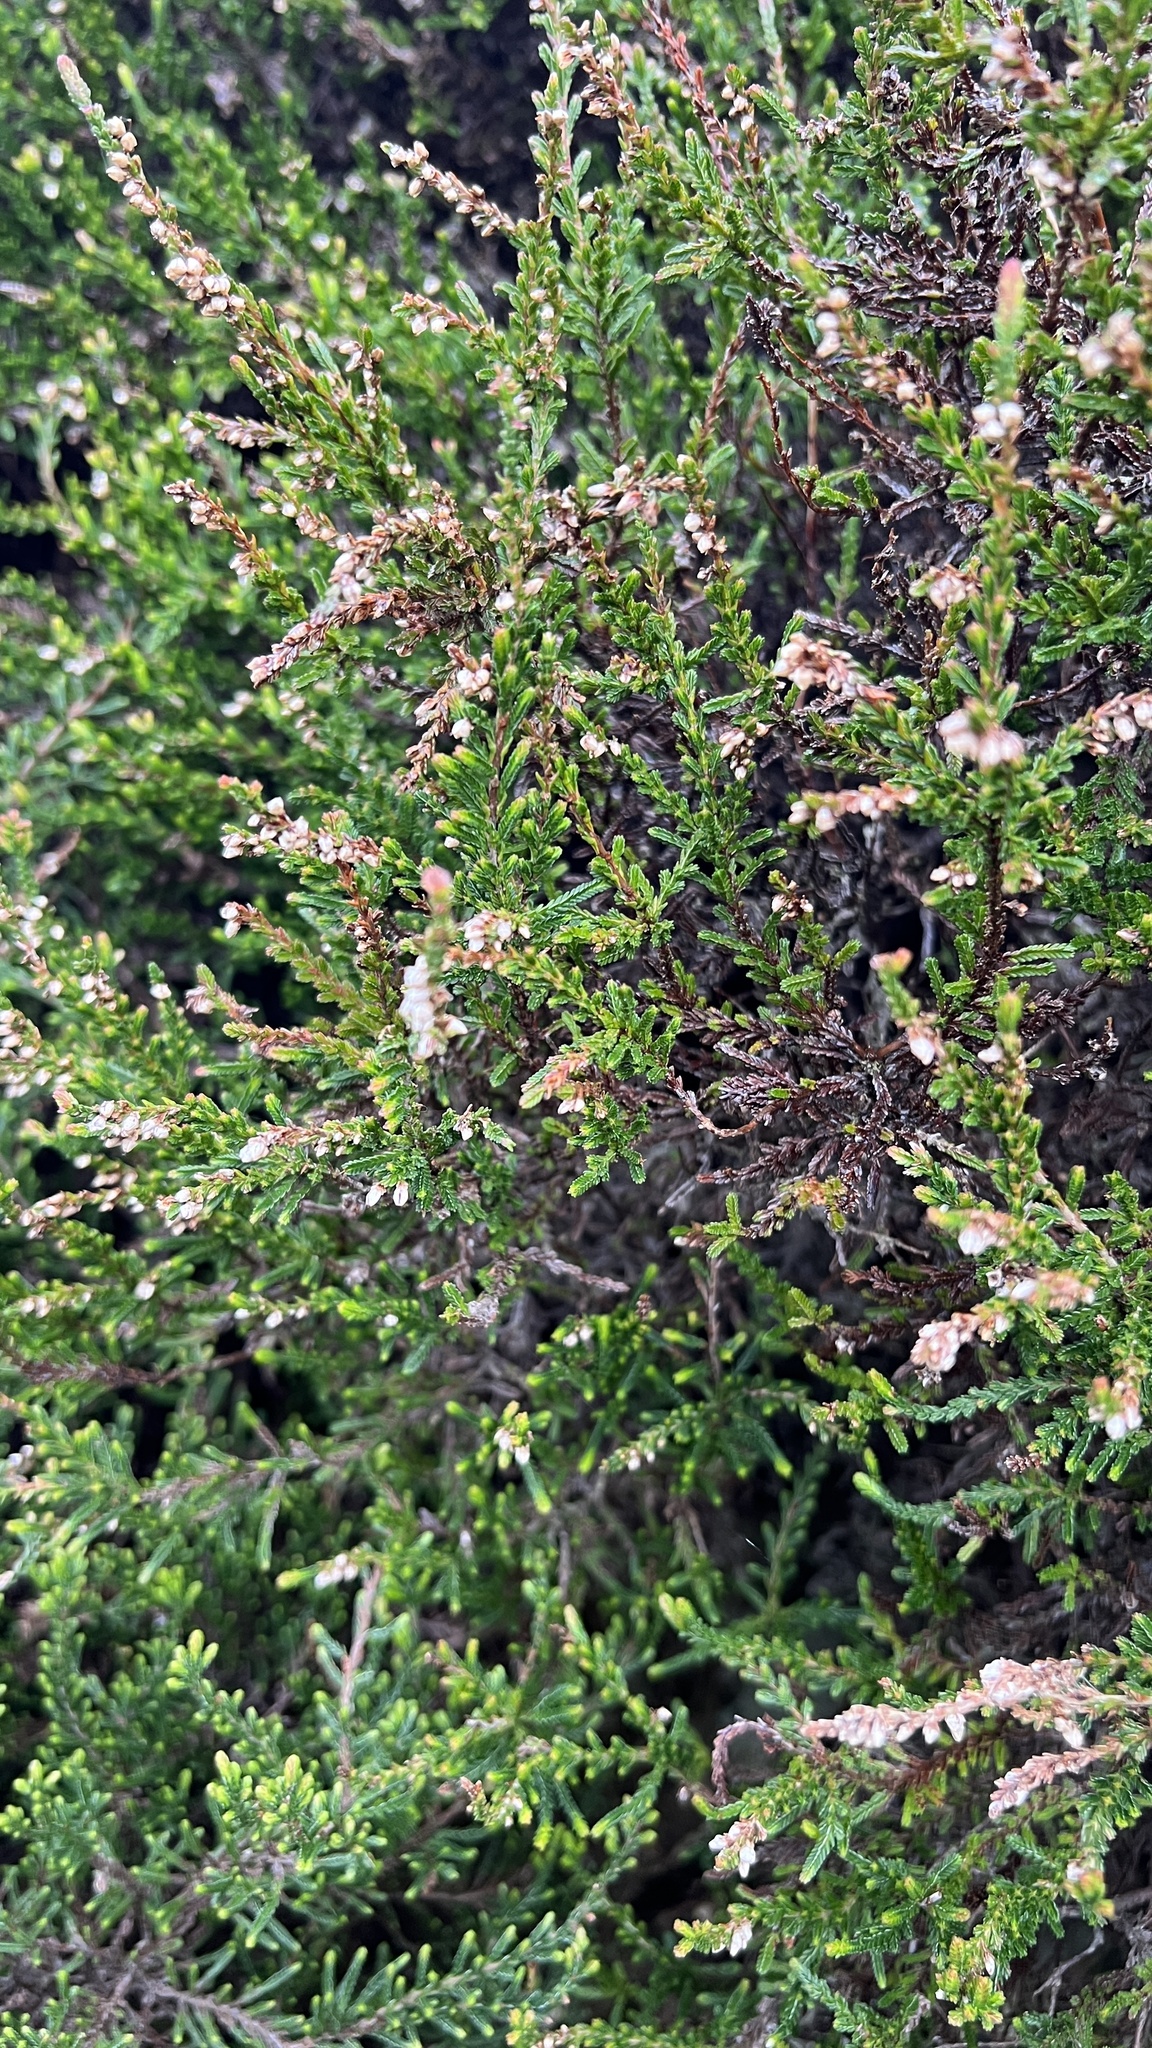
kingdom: Plantae
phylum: Tracheophyta
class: Magnoliopsida
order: Ericales
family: Ericaceae
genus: Calluna
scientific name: Calluna vulgaris
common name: Heather
